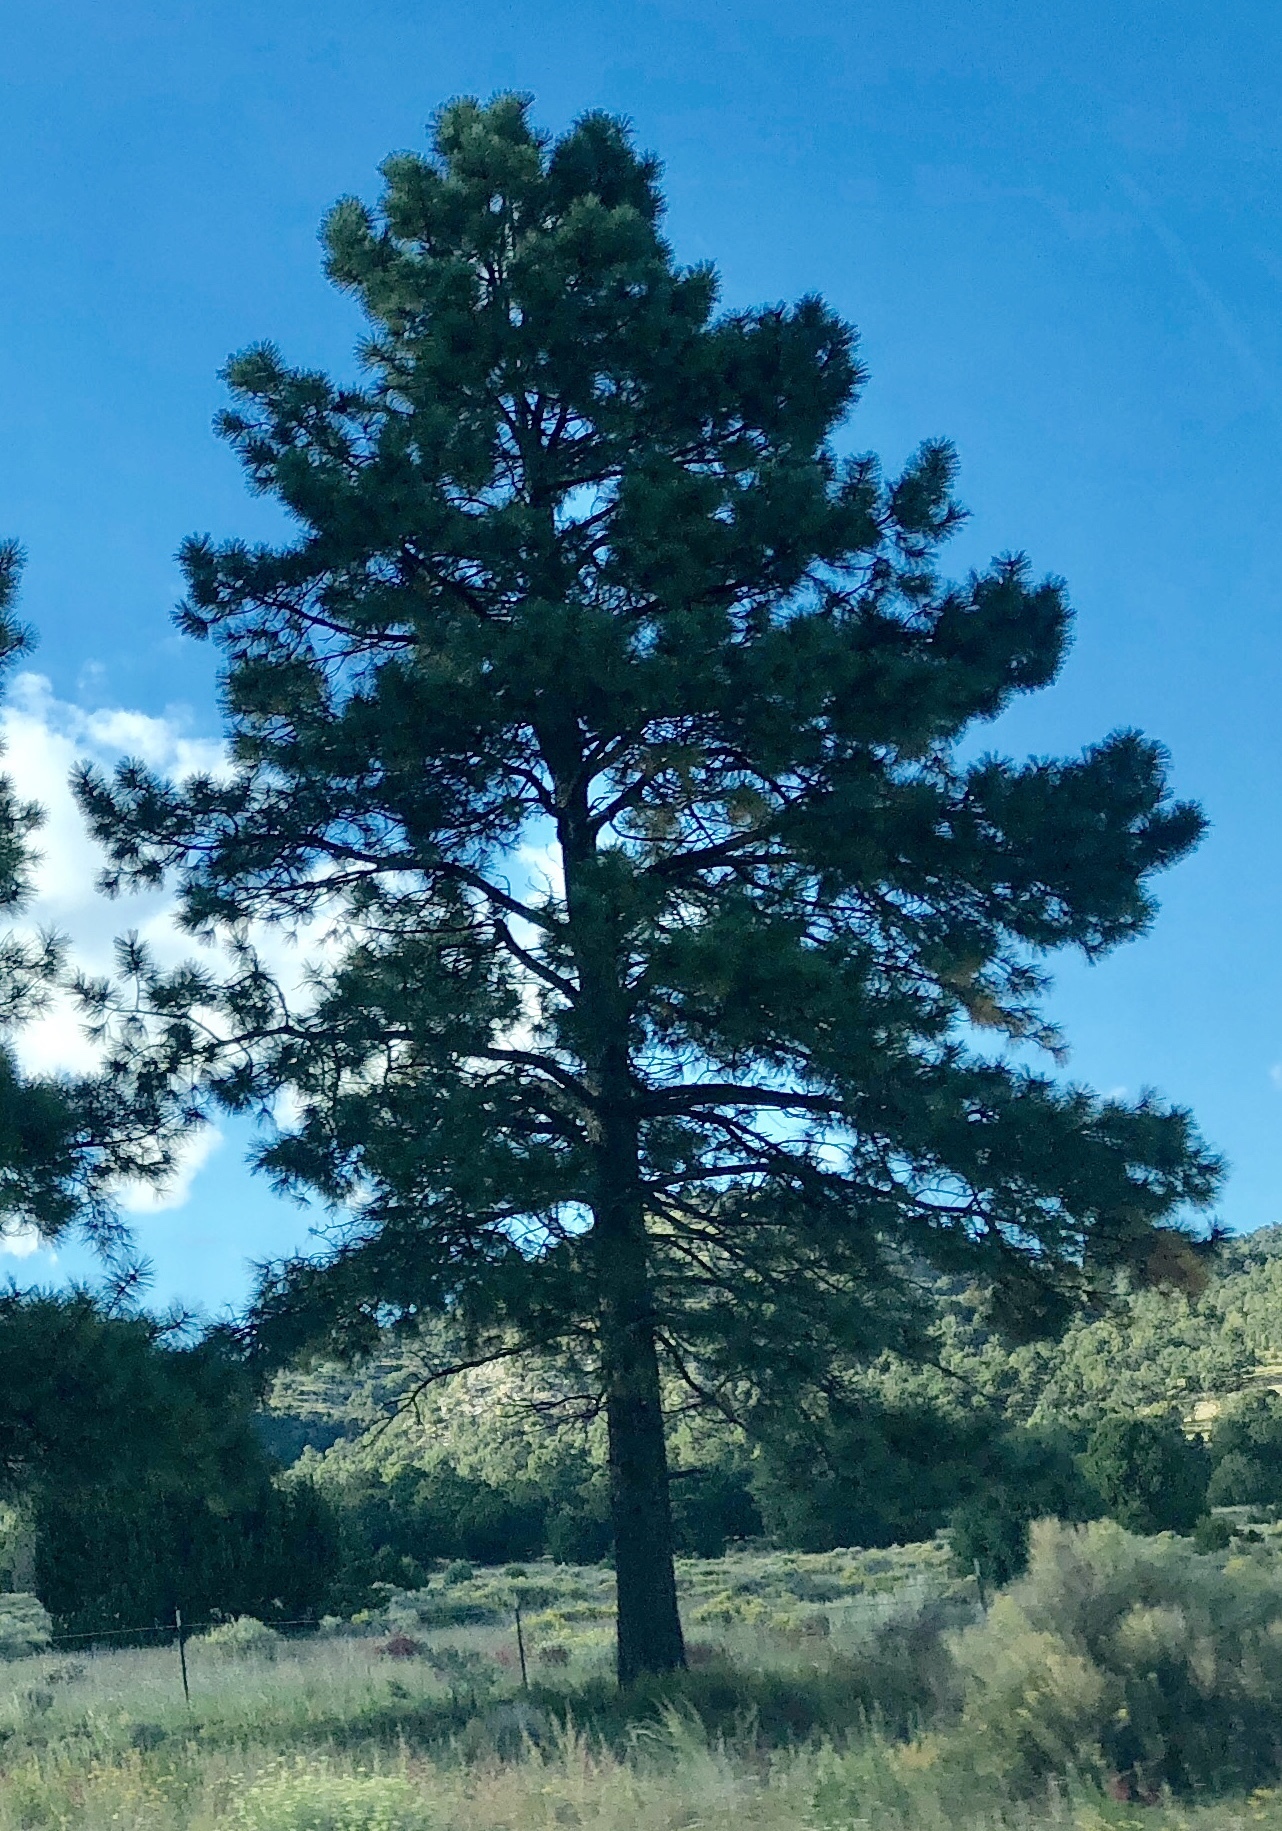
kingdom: Plantae
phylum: Tracheophyta
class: Pinopsida
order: Pinales
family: Pinaceae
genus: Pinus
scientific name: Pinus ponderosa
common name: Western yellow-pine
